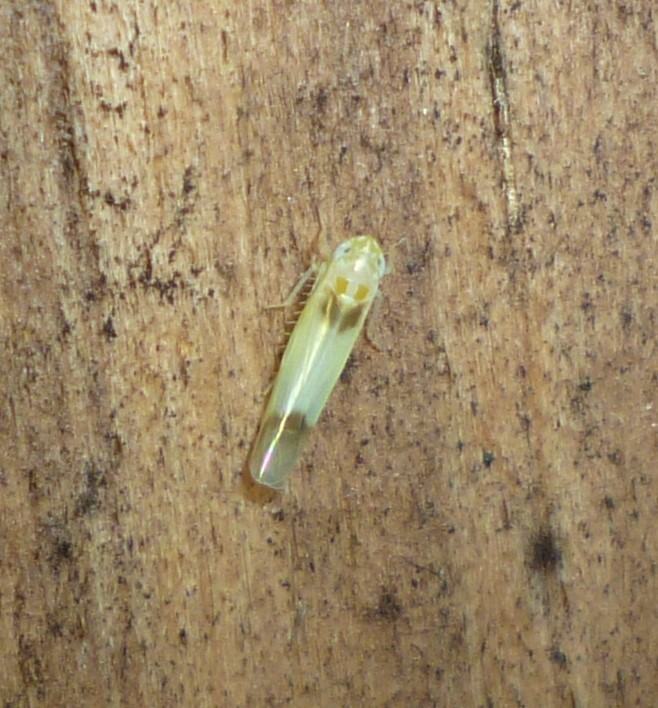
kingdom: Animalia
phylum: Arthropoda
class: Insecta
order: Hemiptera
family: Cicadellidae
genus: Empoasca
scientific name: Empoasca
